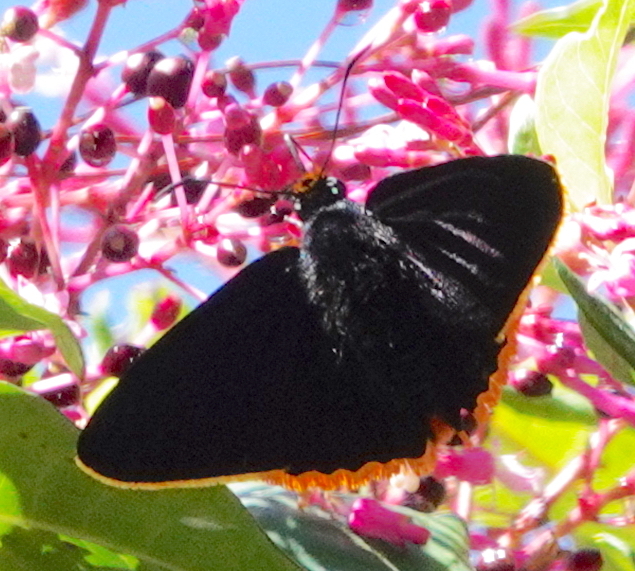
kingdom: Animalia
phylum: Arthropoda
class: Insecta
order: Lepidoptera
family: Hesperiidae
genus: Jonaspyge
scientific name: Jonaspyge elizabethae
